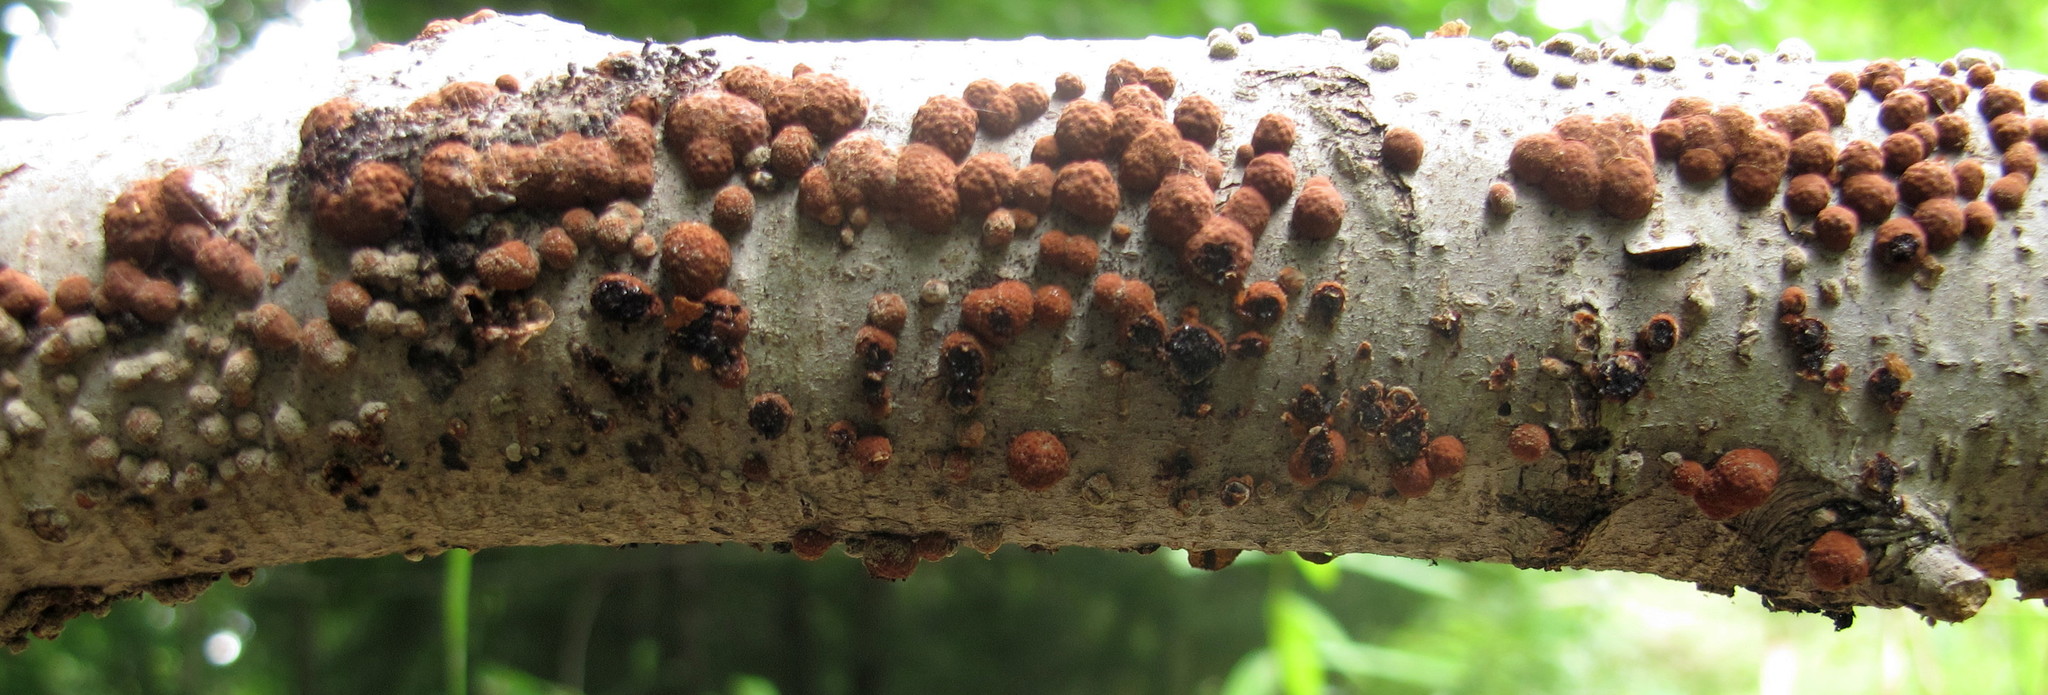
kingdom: Fungi
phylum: Ascomycota
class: Sordariomycetes
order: Xylariales
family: Hypoxylaceae
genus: Hypoxylon
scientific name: Hypoxylon fragiforme
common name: Beech woodwart
